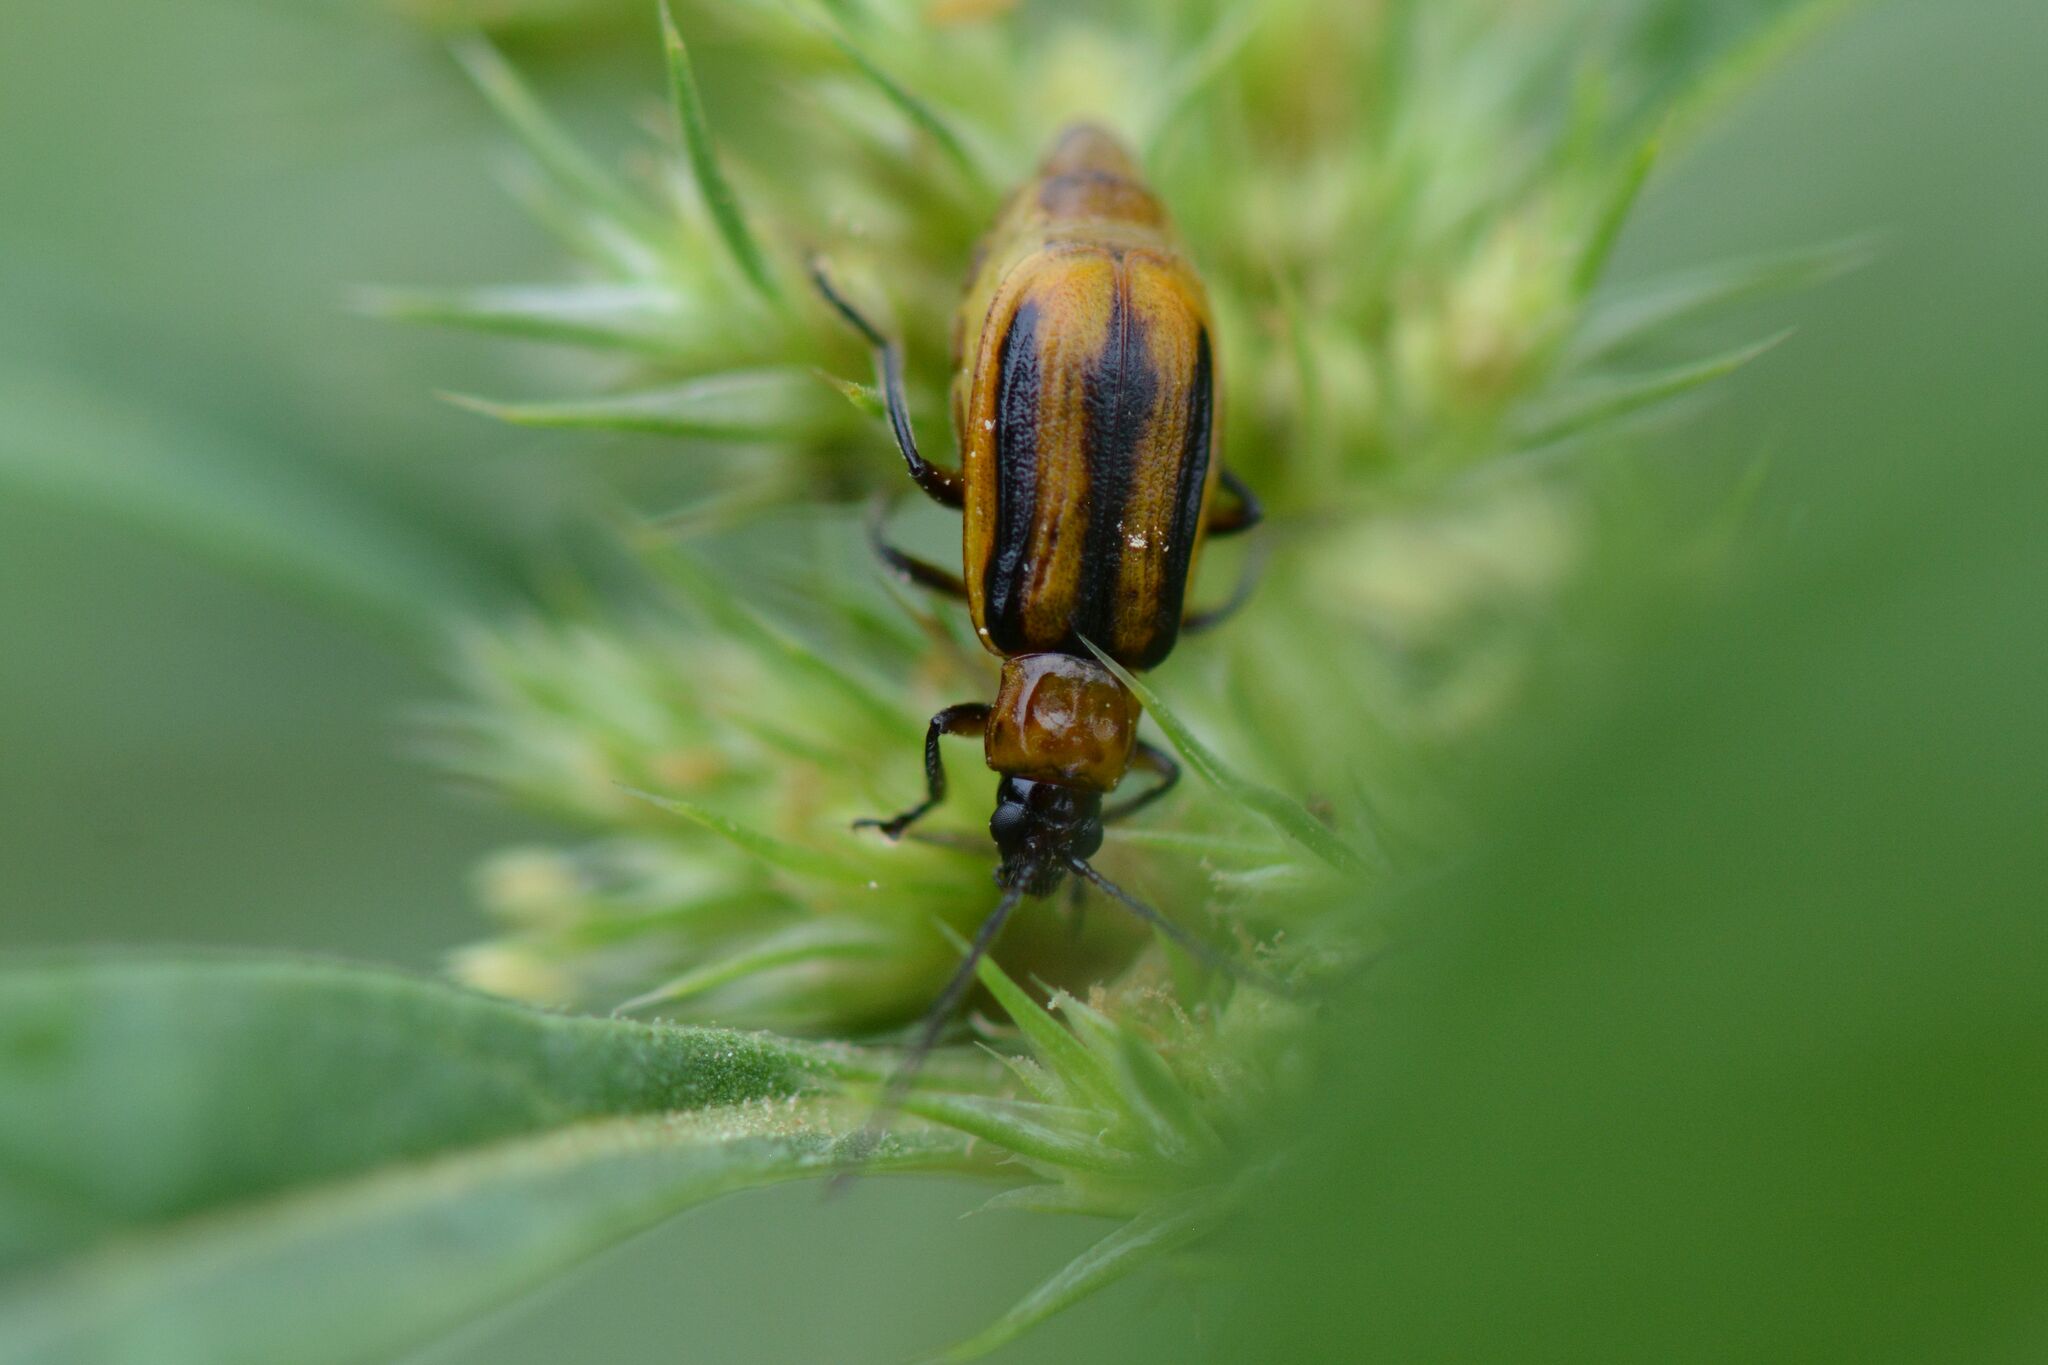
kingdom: Animalia
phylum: Arthropoda
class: Insecta
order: Coleoptera
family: Chrysomelidae
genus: Diabrotica
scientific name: Diabrotica virgifera
